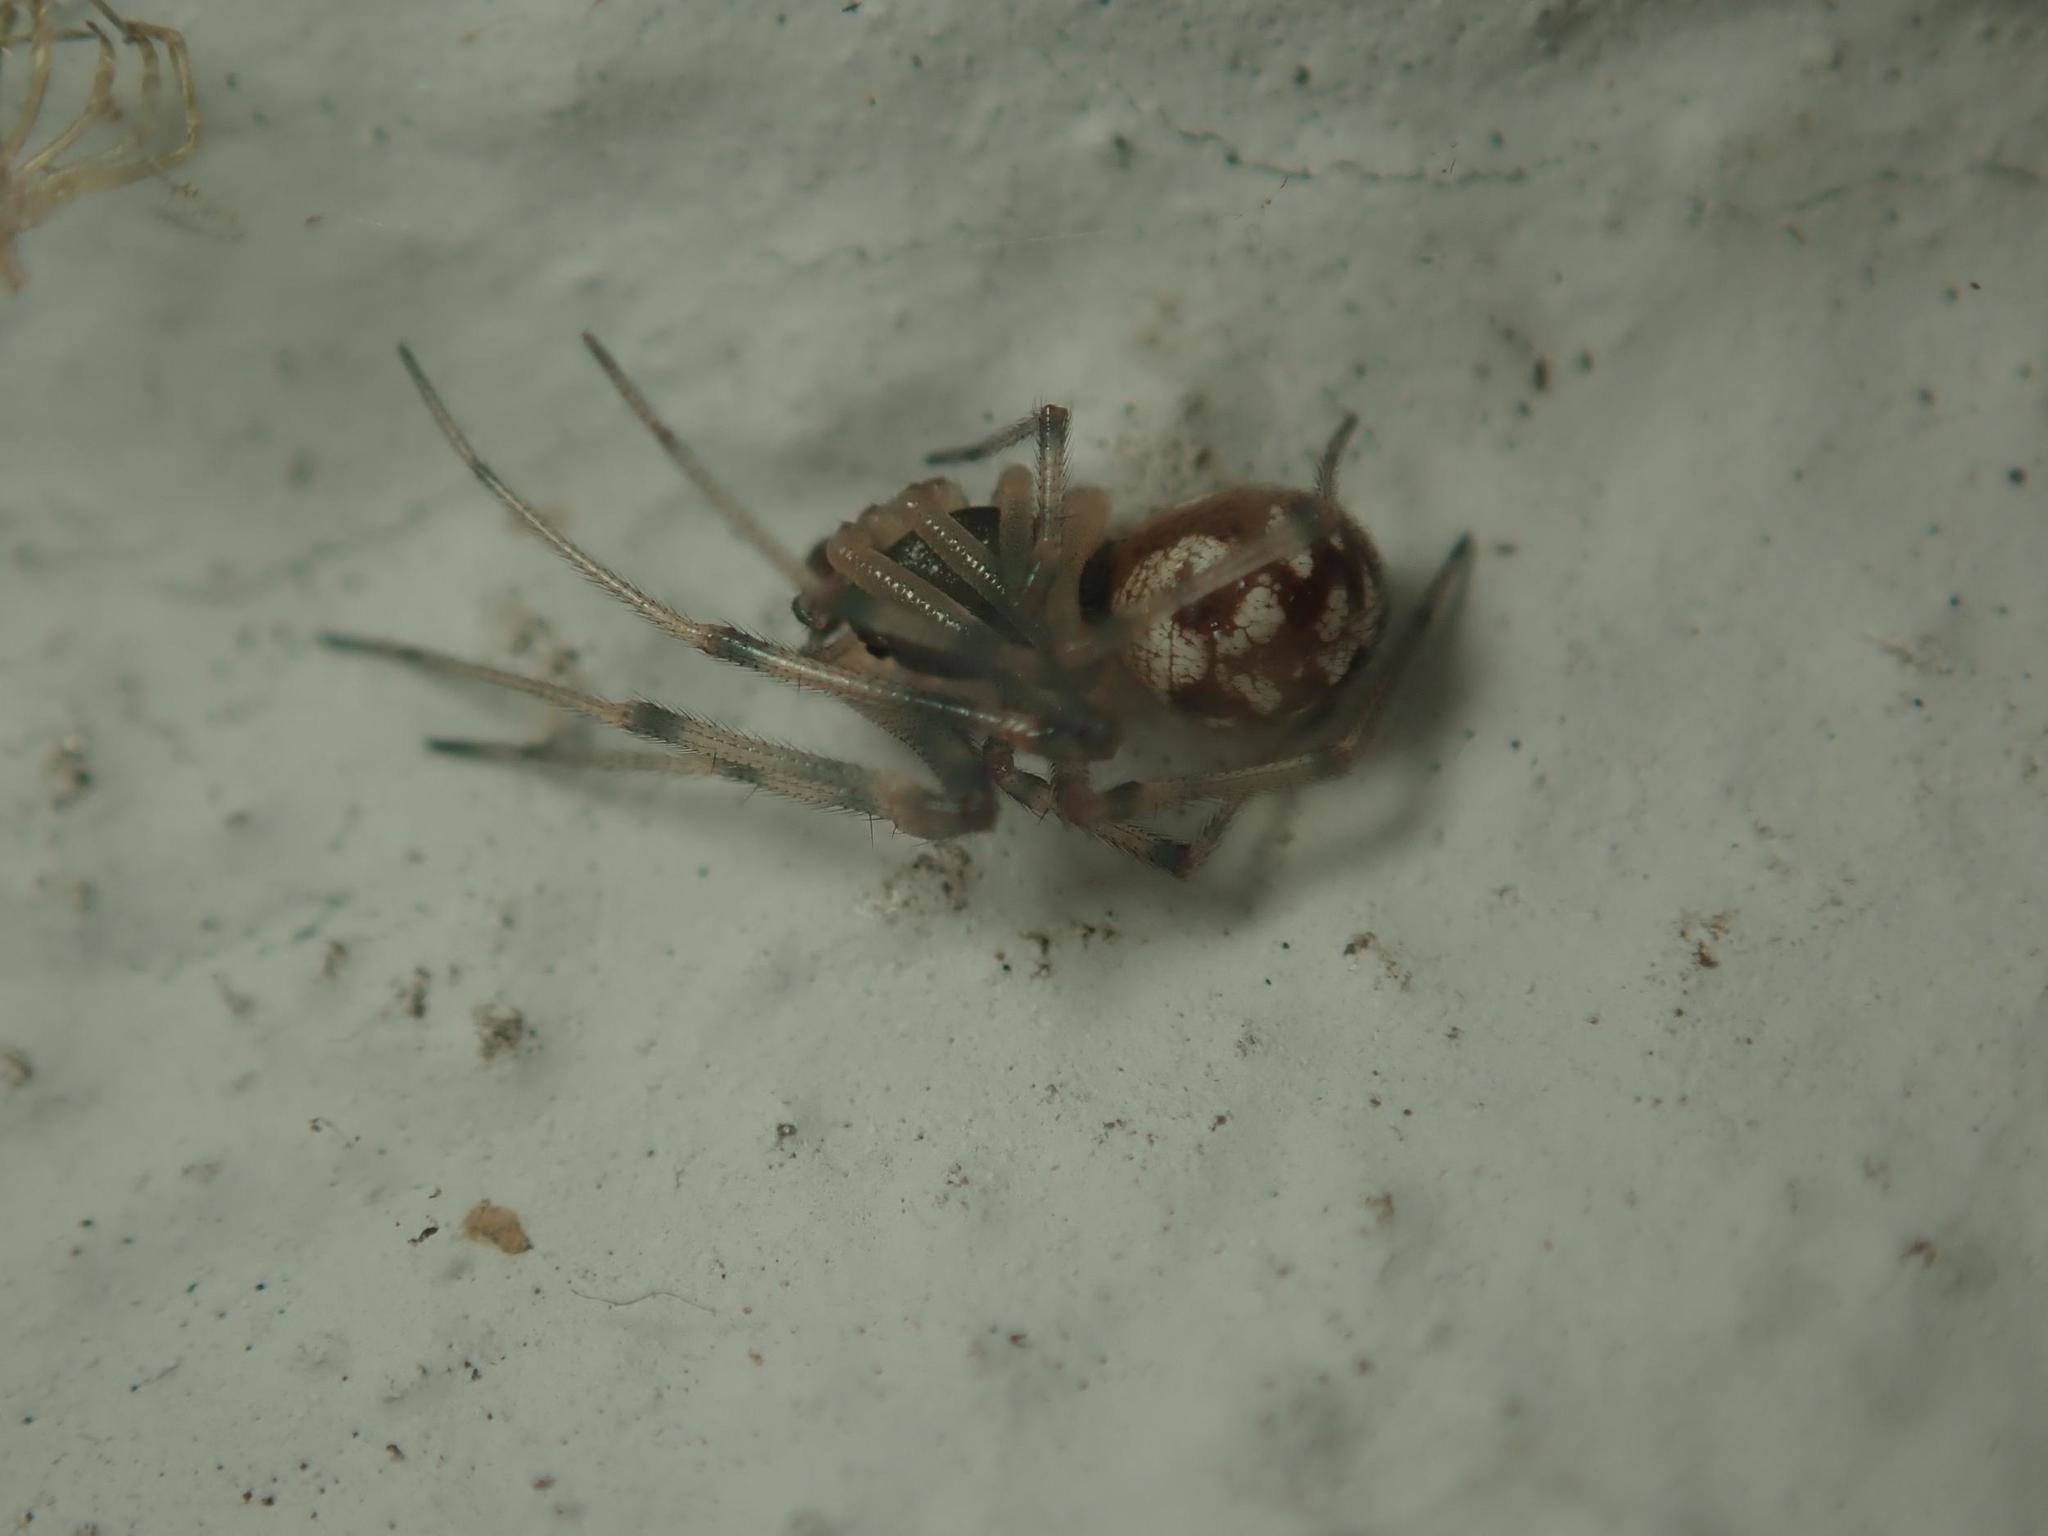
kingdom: Animalia
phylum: Arthropoda
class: Arachnida
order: Araneae
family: Theridiidae
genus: Steatoda
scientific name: Steatoda triangulosa
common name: Triangulate bud spider
